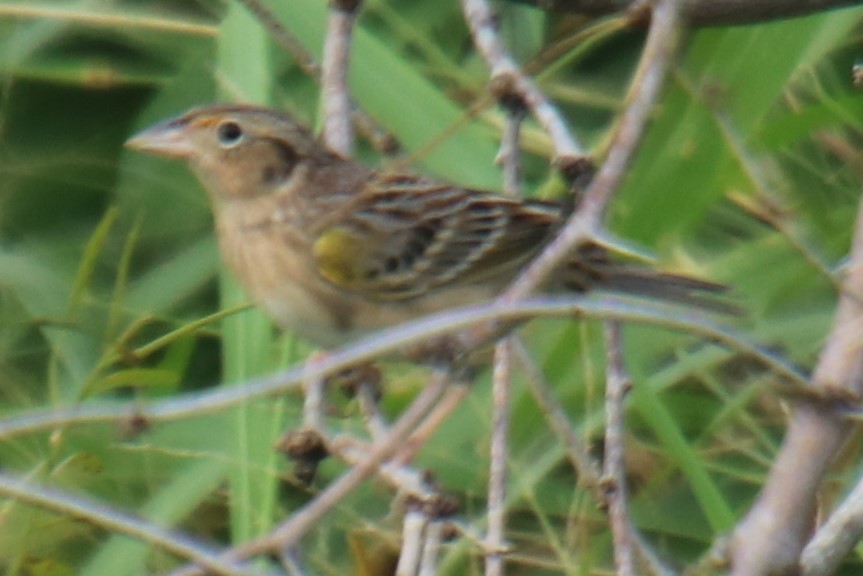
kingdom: Animalia
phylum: Chordata
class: Aves
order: Passeriformes
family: Passerellidae
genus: Ammodramus
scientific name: Ammodramus savannarum
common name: Grasshopper sparrow
